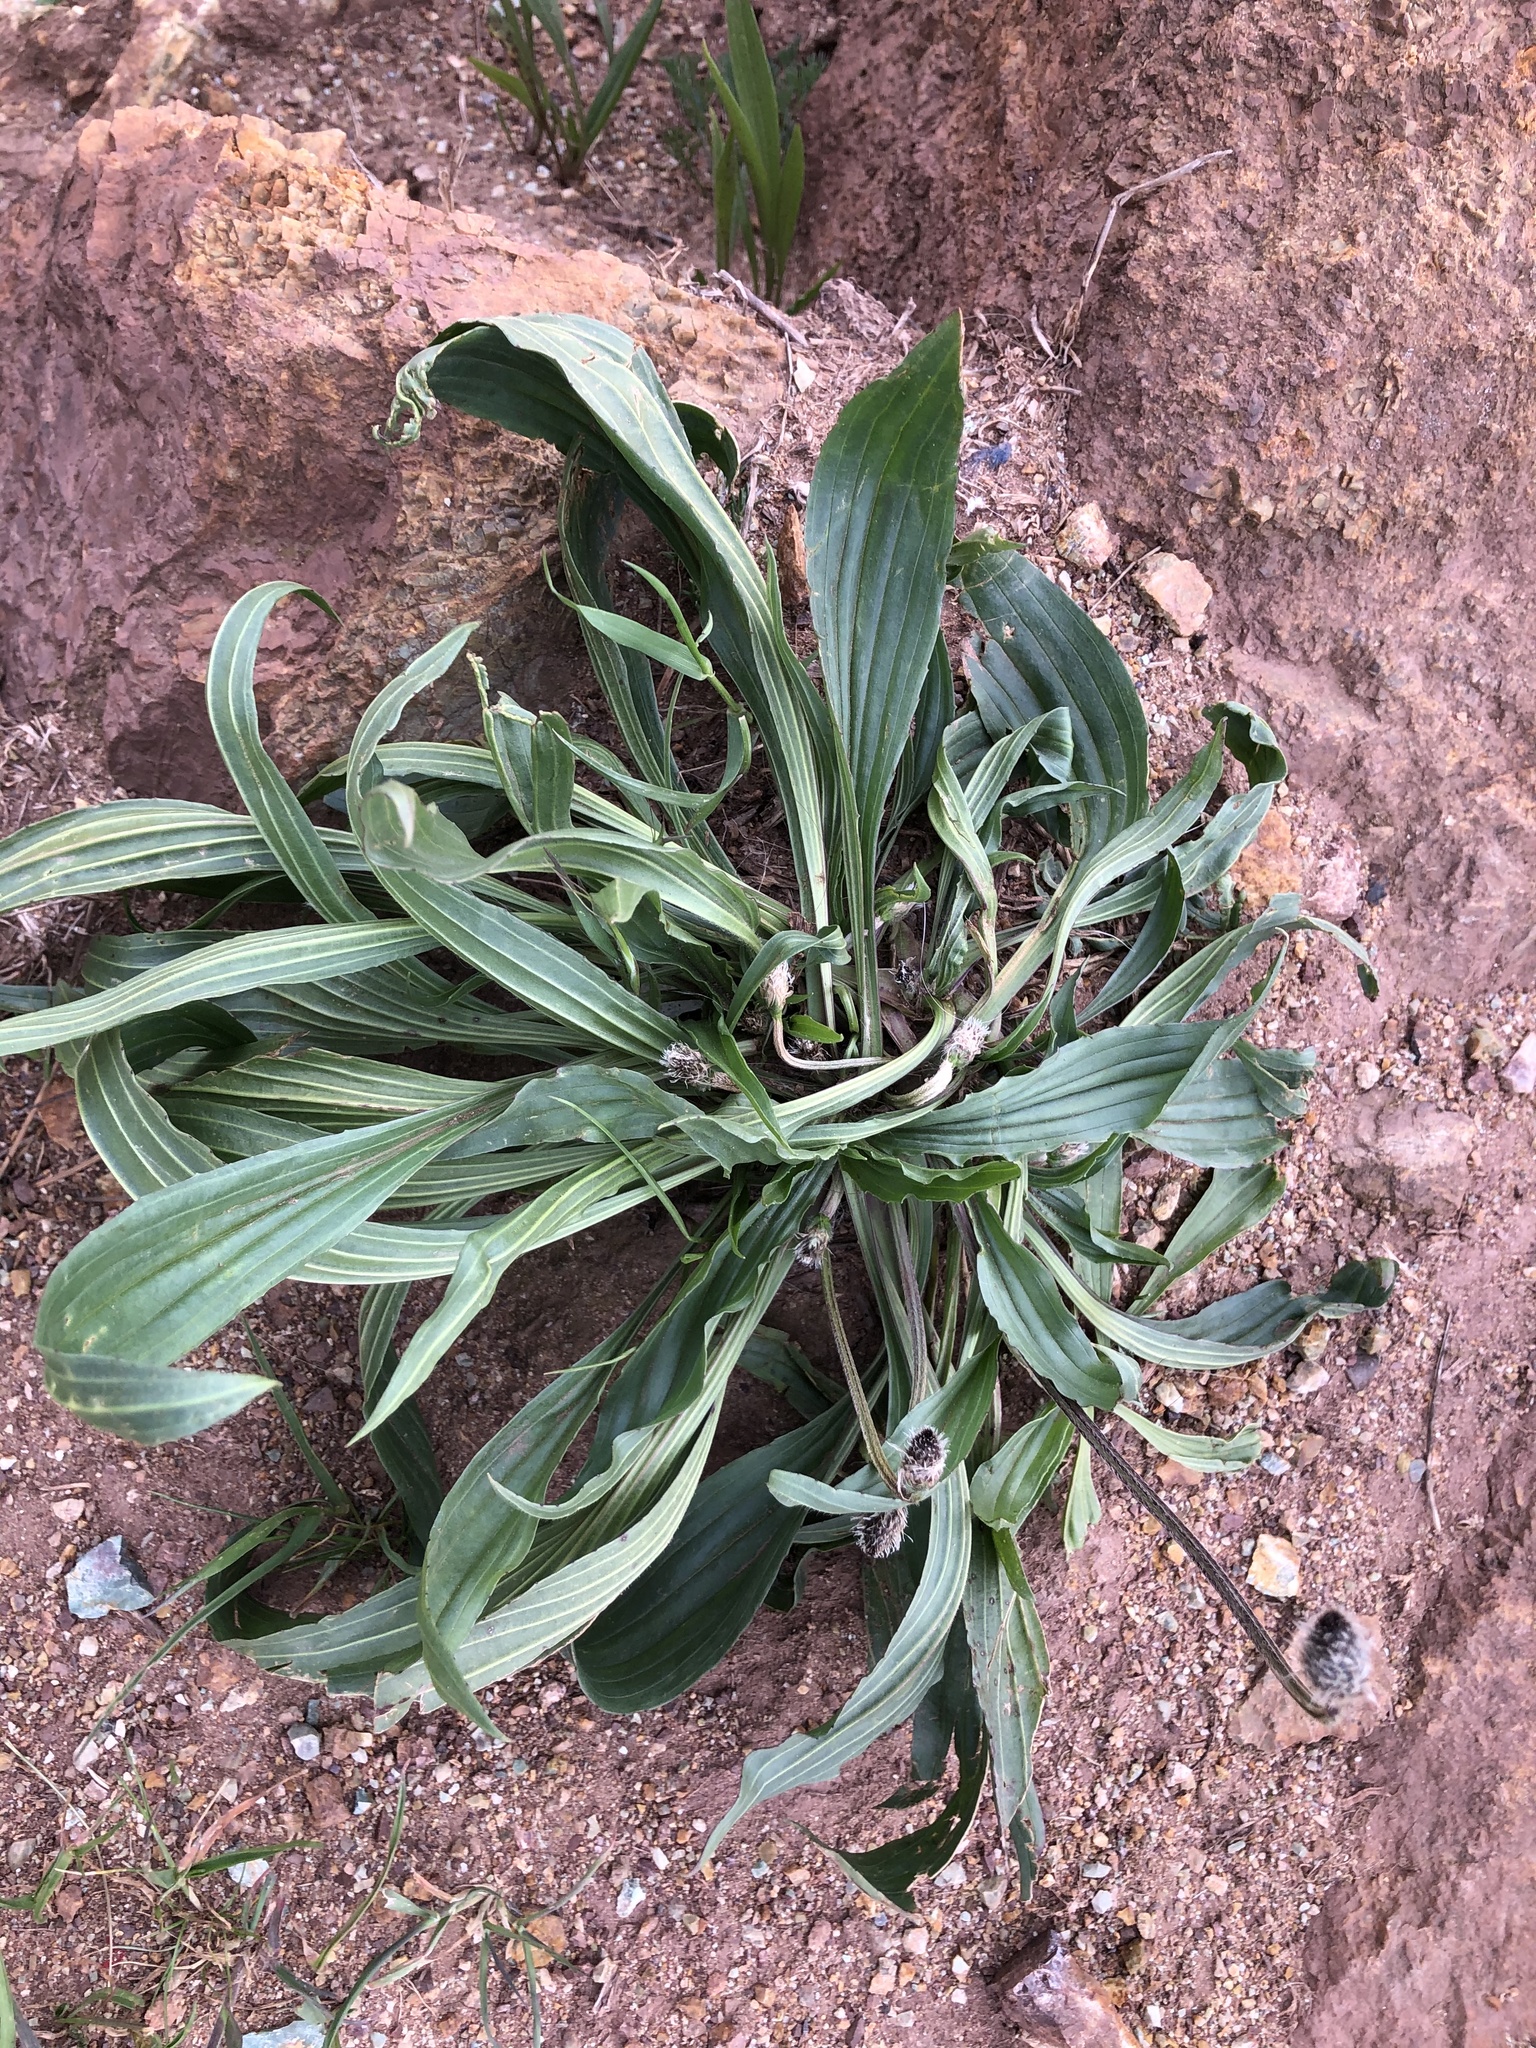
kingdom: Plantae
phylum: Tracheophyta
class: Magnoliopsida
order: Lamiales
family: Plantaginaceae
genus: Plantago
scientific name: Plantago lanceolata
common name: Ribwort plantain
